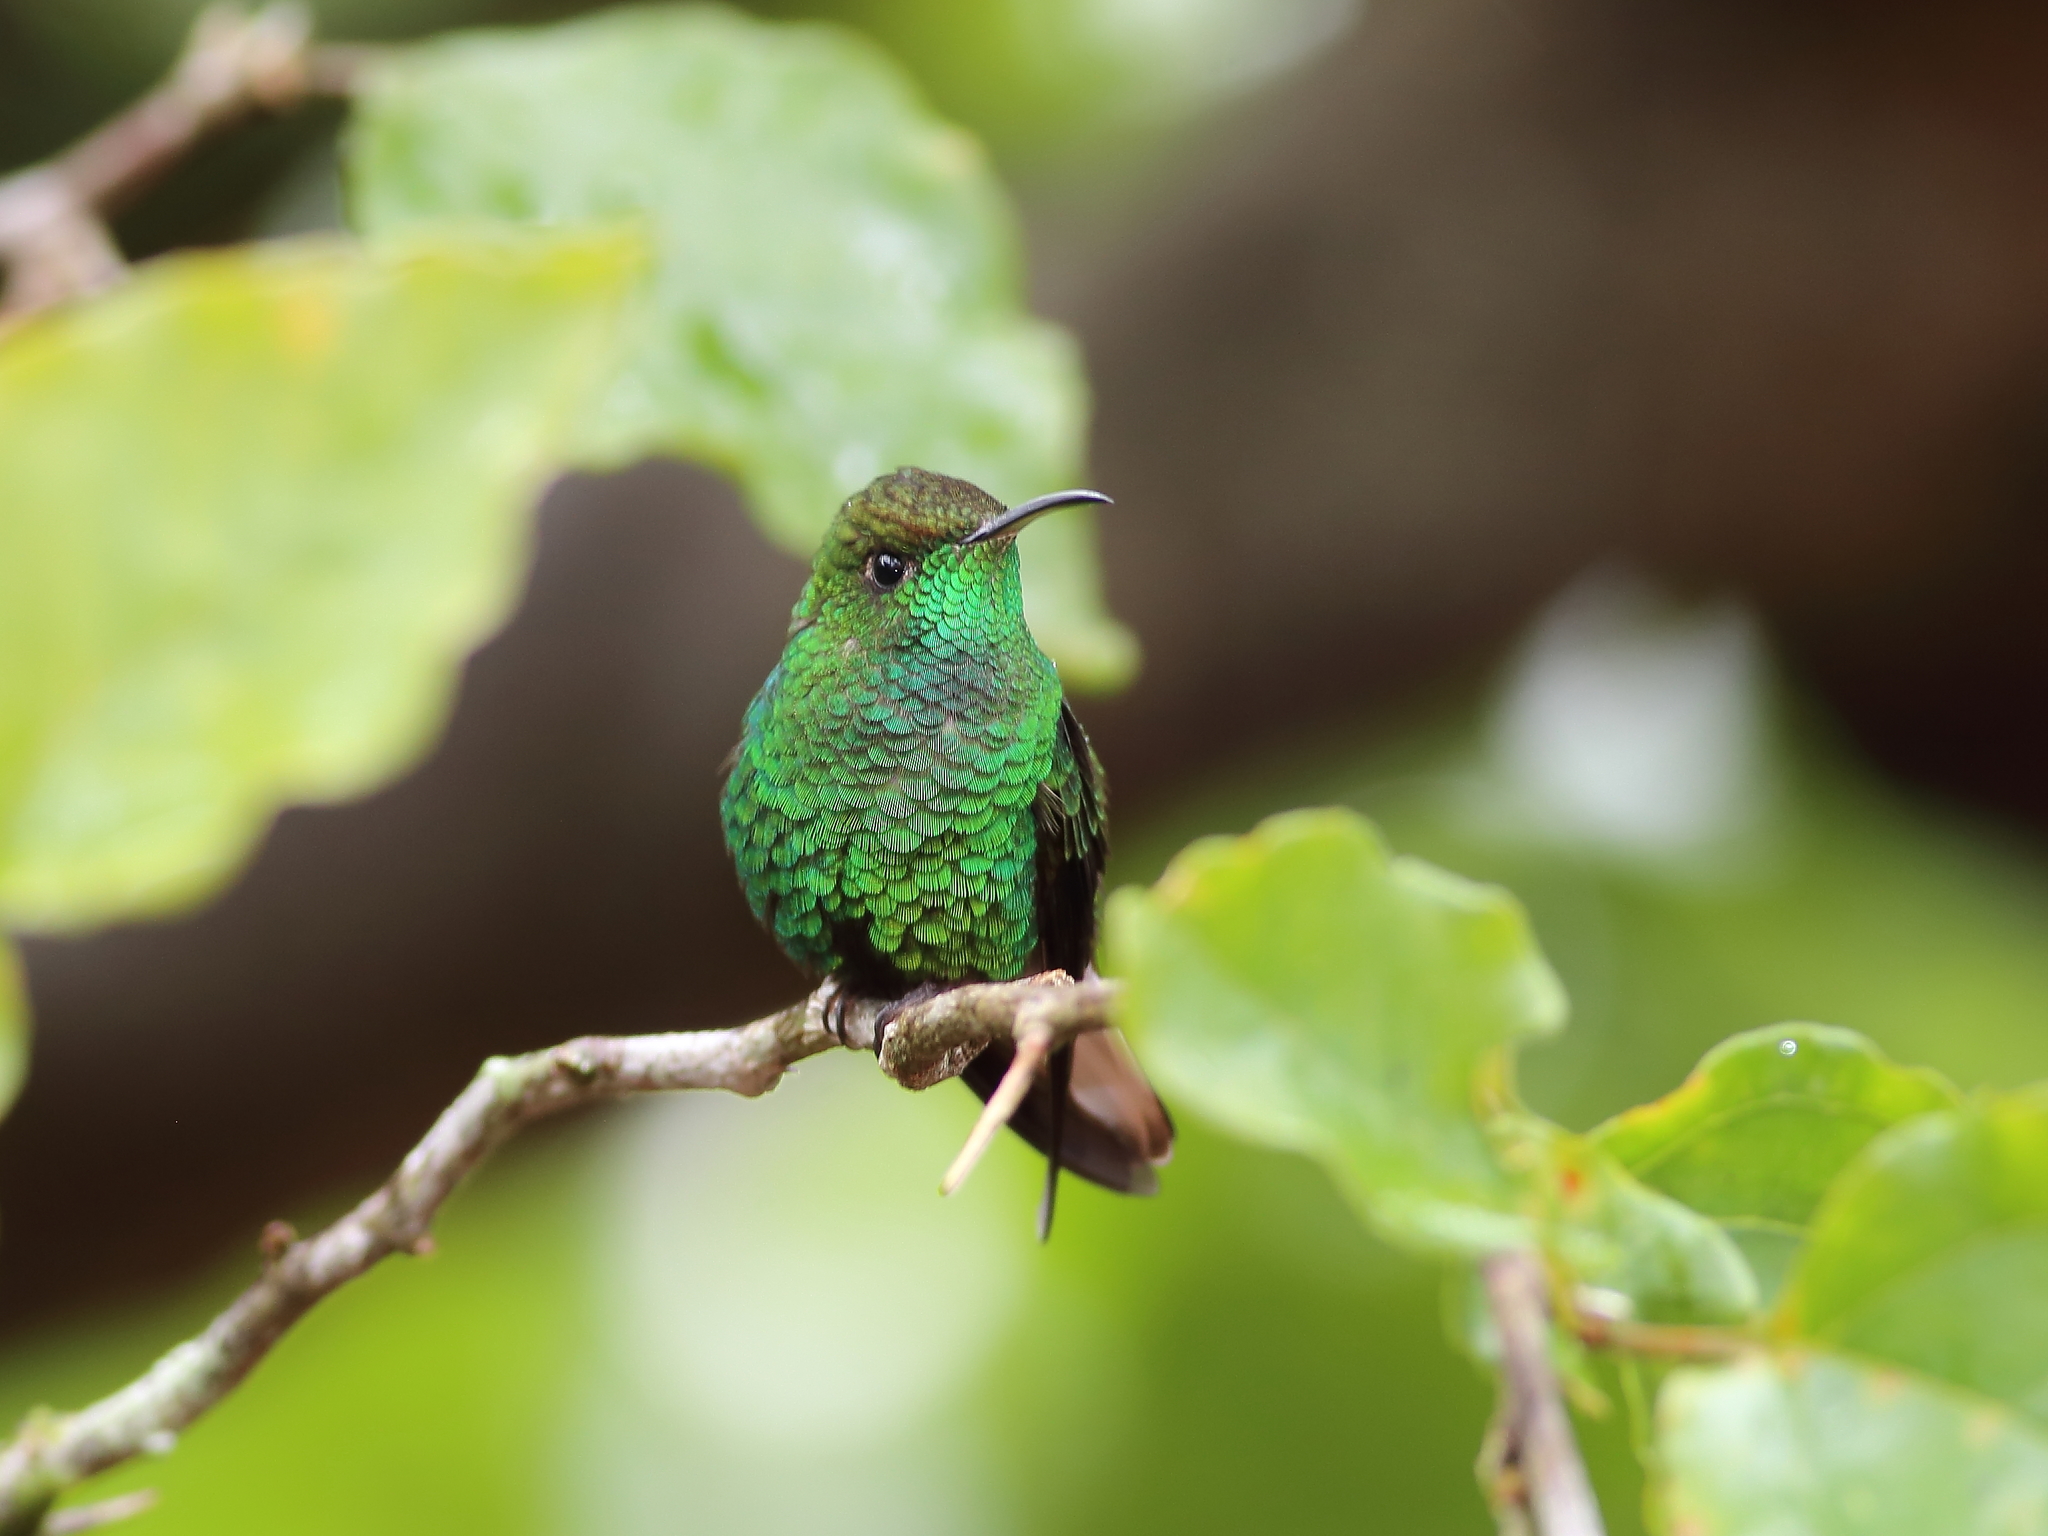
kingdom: Animalia
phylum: Chordata
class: Aves
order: Apodiformes
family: Trochilidae
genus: Microchera
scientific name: Microchera cupreiceps
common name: Coppery-headed emerald
